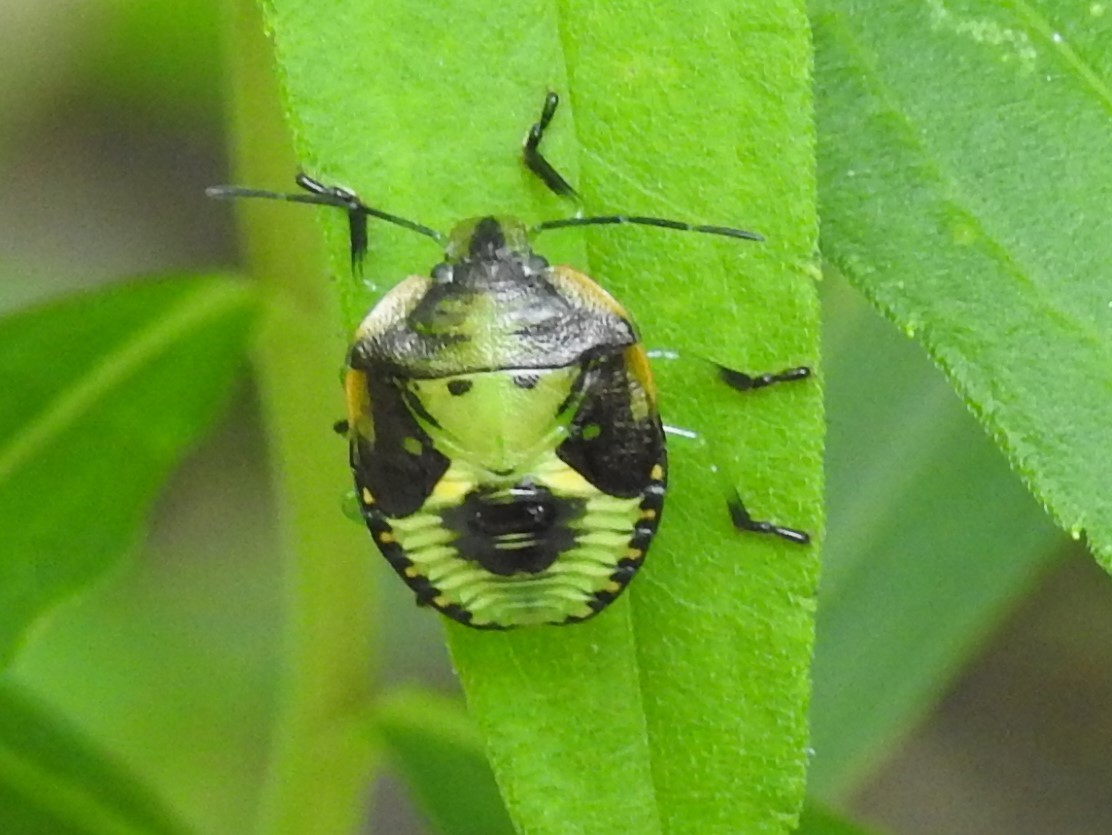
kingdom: Animalia
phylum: Arthropoda
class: Insecta
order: Hemiptera
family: Pentatomidae
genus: Chinavia
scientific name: Chinavia hilaris
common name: Green stink bug
